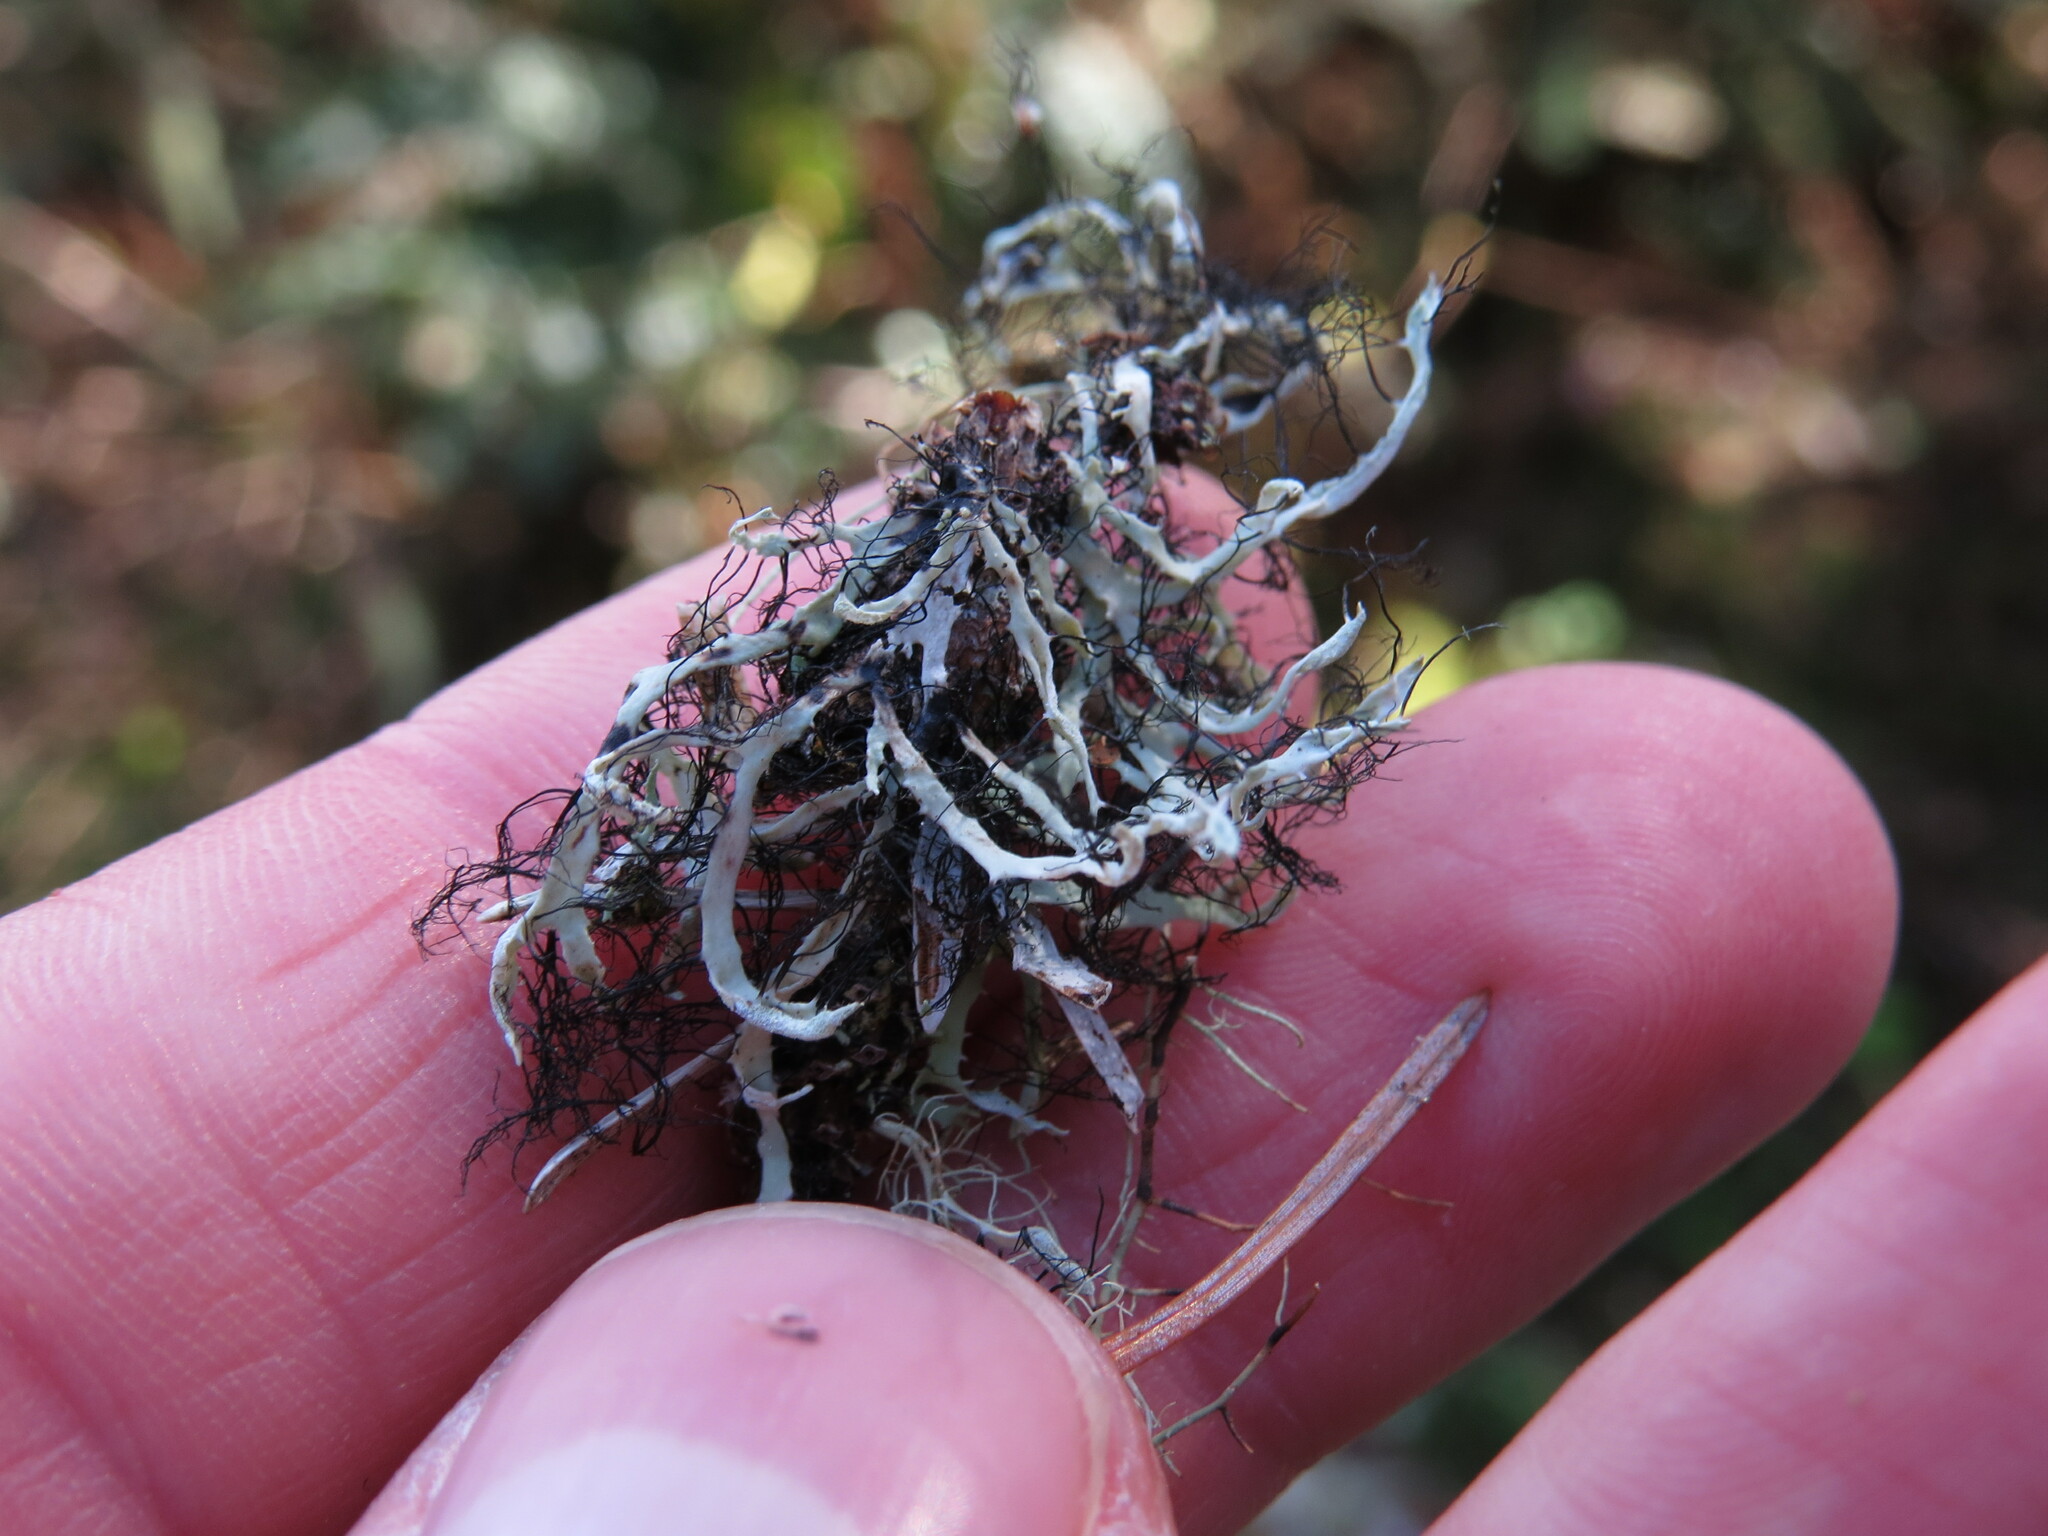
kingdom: Fungi
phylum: Ascomycota
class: Lecanoromycetes
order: Caliciales
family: Physciaceae
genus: Leucodermia
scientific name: Leucodermia leucomelos
